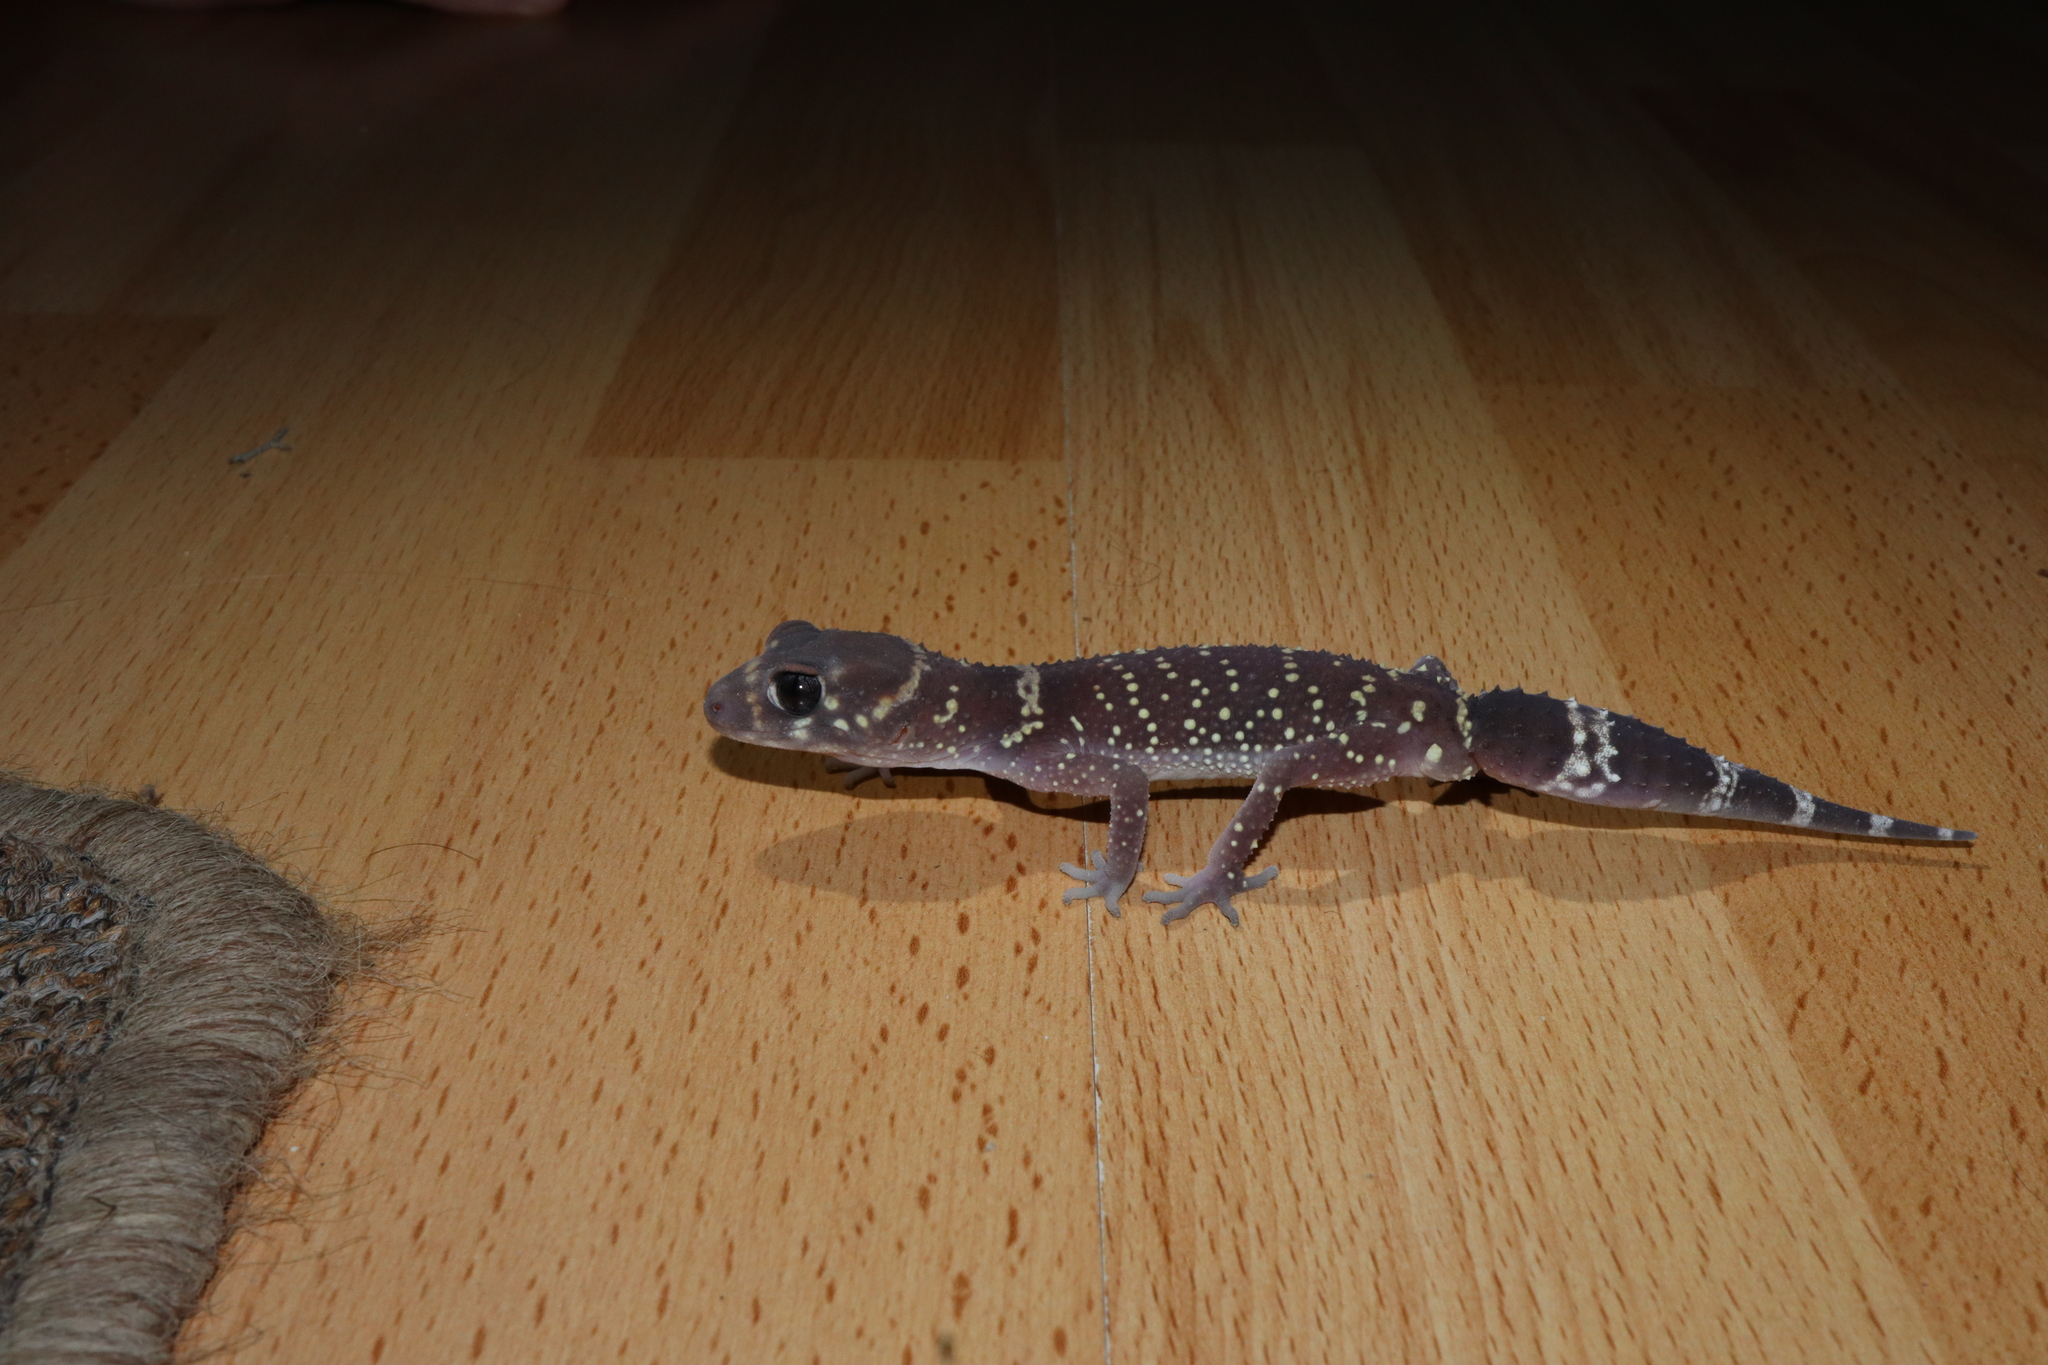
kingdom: Animalia
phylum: Chordata
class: Squamata
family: Carphodactylidae
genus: Underwoodisaurus
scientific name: Underwoodisaurus milii
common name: Barking gecko
